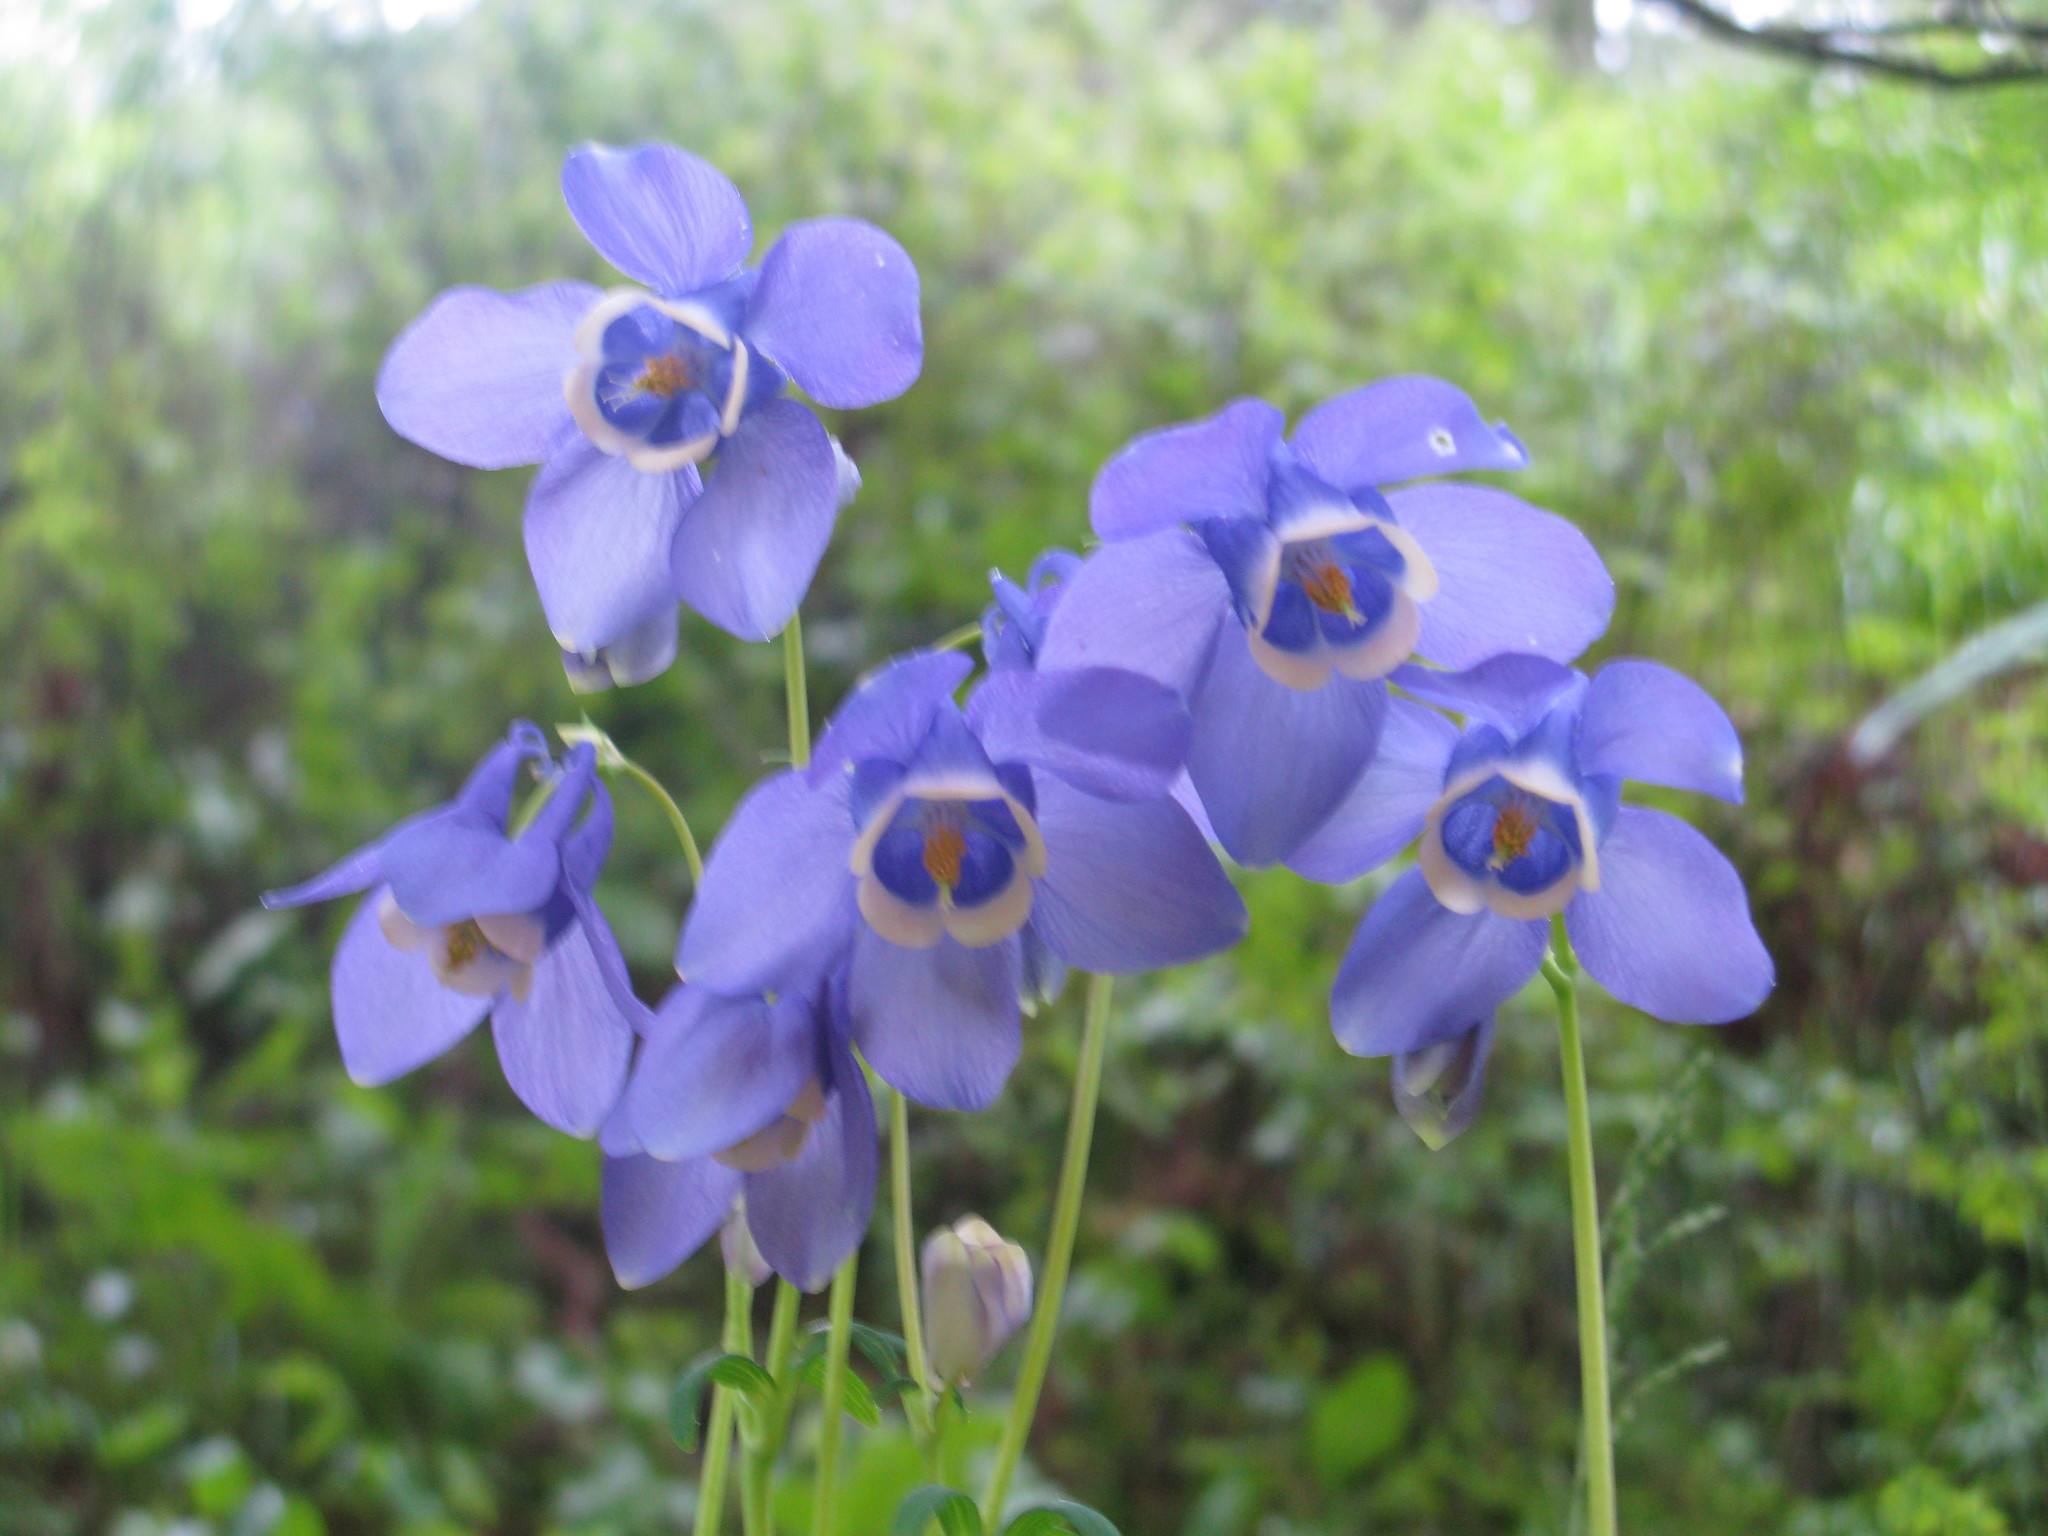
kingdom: Plantae
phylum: Tracheophyta
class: Magnoliopsida
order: Ranunculales
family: Ranunculaceae
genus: Aquilegia
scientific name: Aquilegia sibirica
